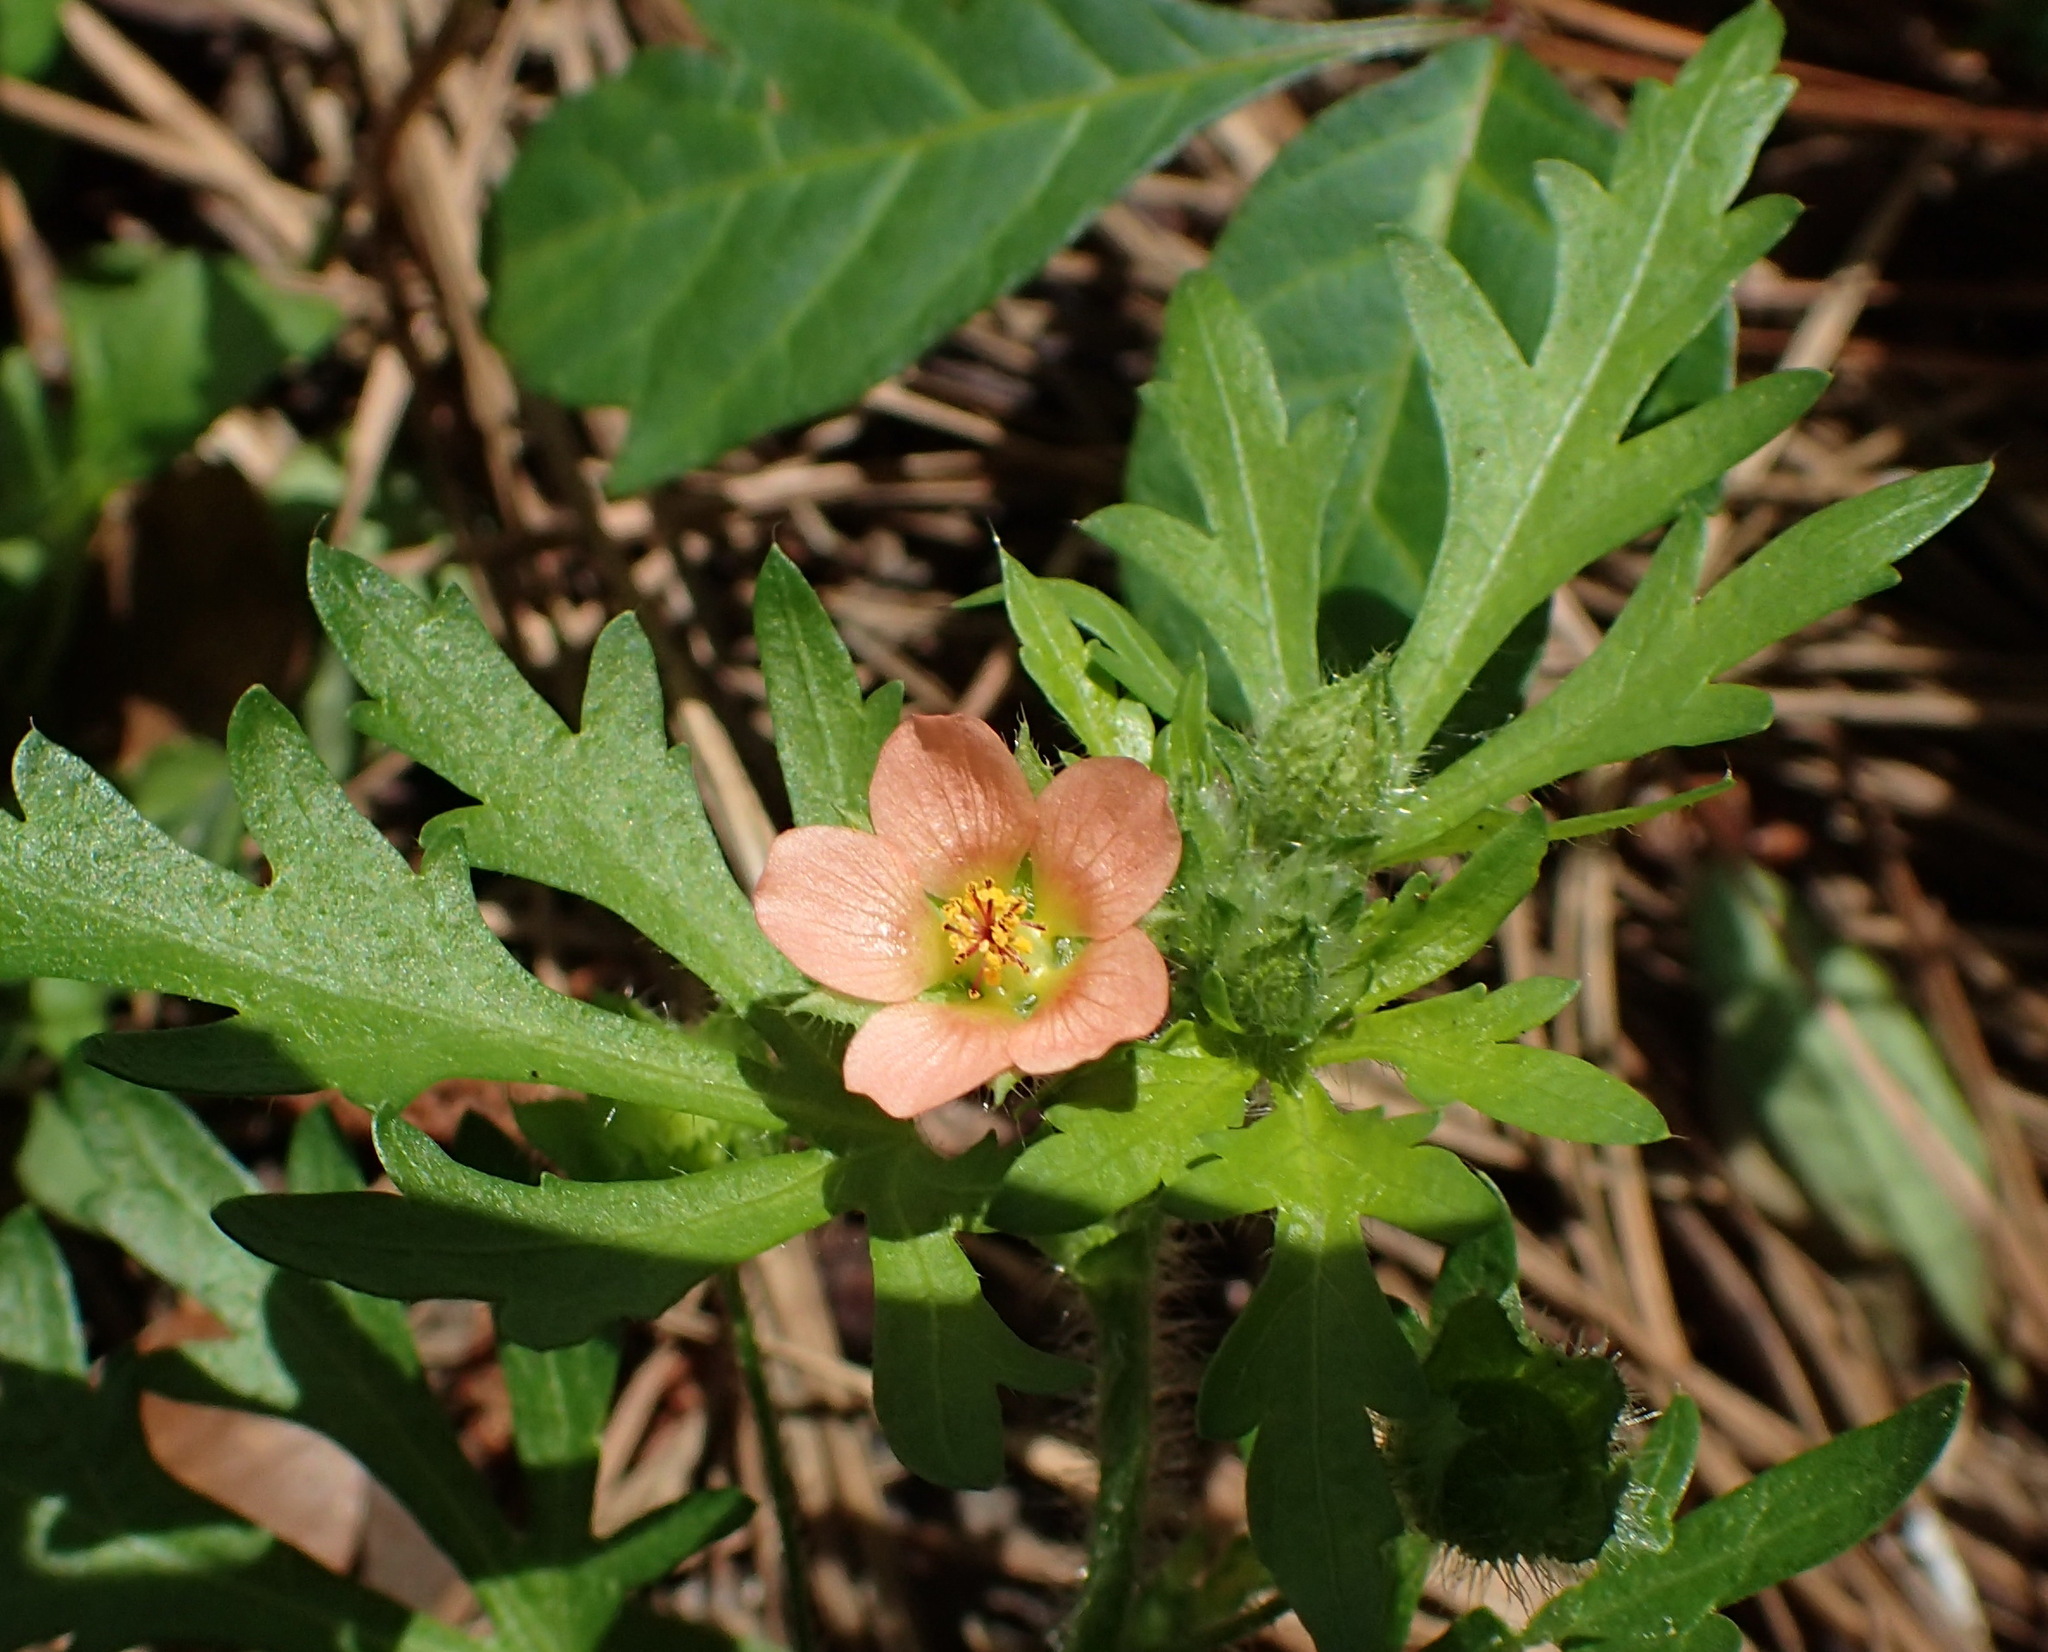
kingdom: Plantae
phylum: Tracheophyta
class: Magnoliopsida
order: Malvales
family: Malvaceae
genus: Modiola
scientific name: Modiola caroliniana
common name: Carolina bristlemallow
